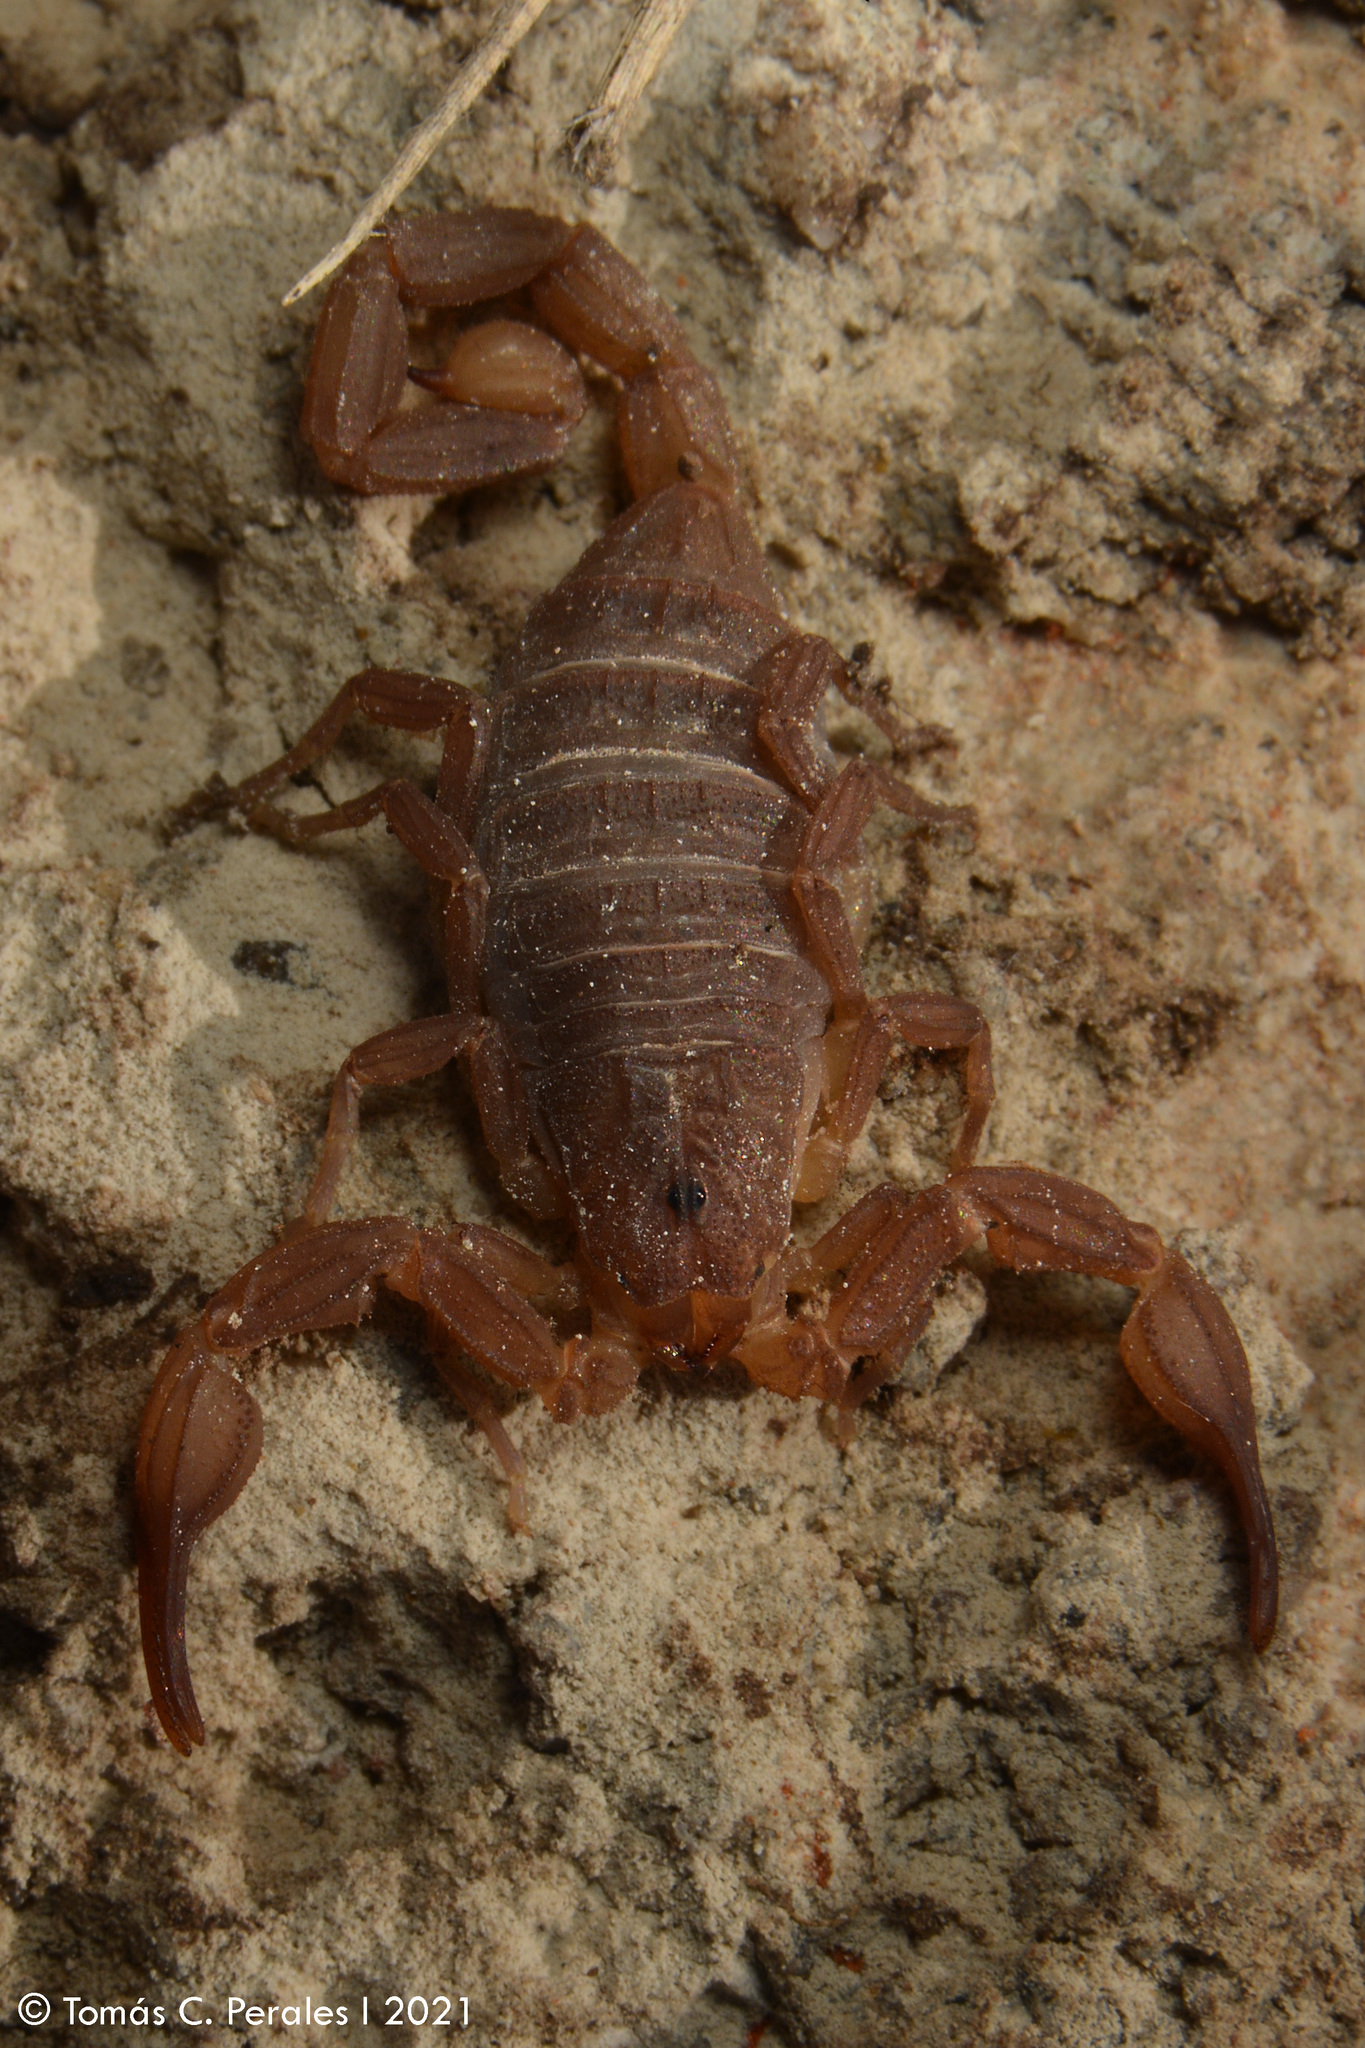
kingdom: Animalia
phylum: Arthropoda
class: Arachnida
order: Scorpiones
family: Buthidae
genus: Zabius
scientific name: Zabius fuscus
